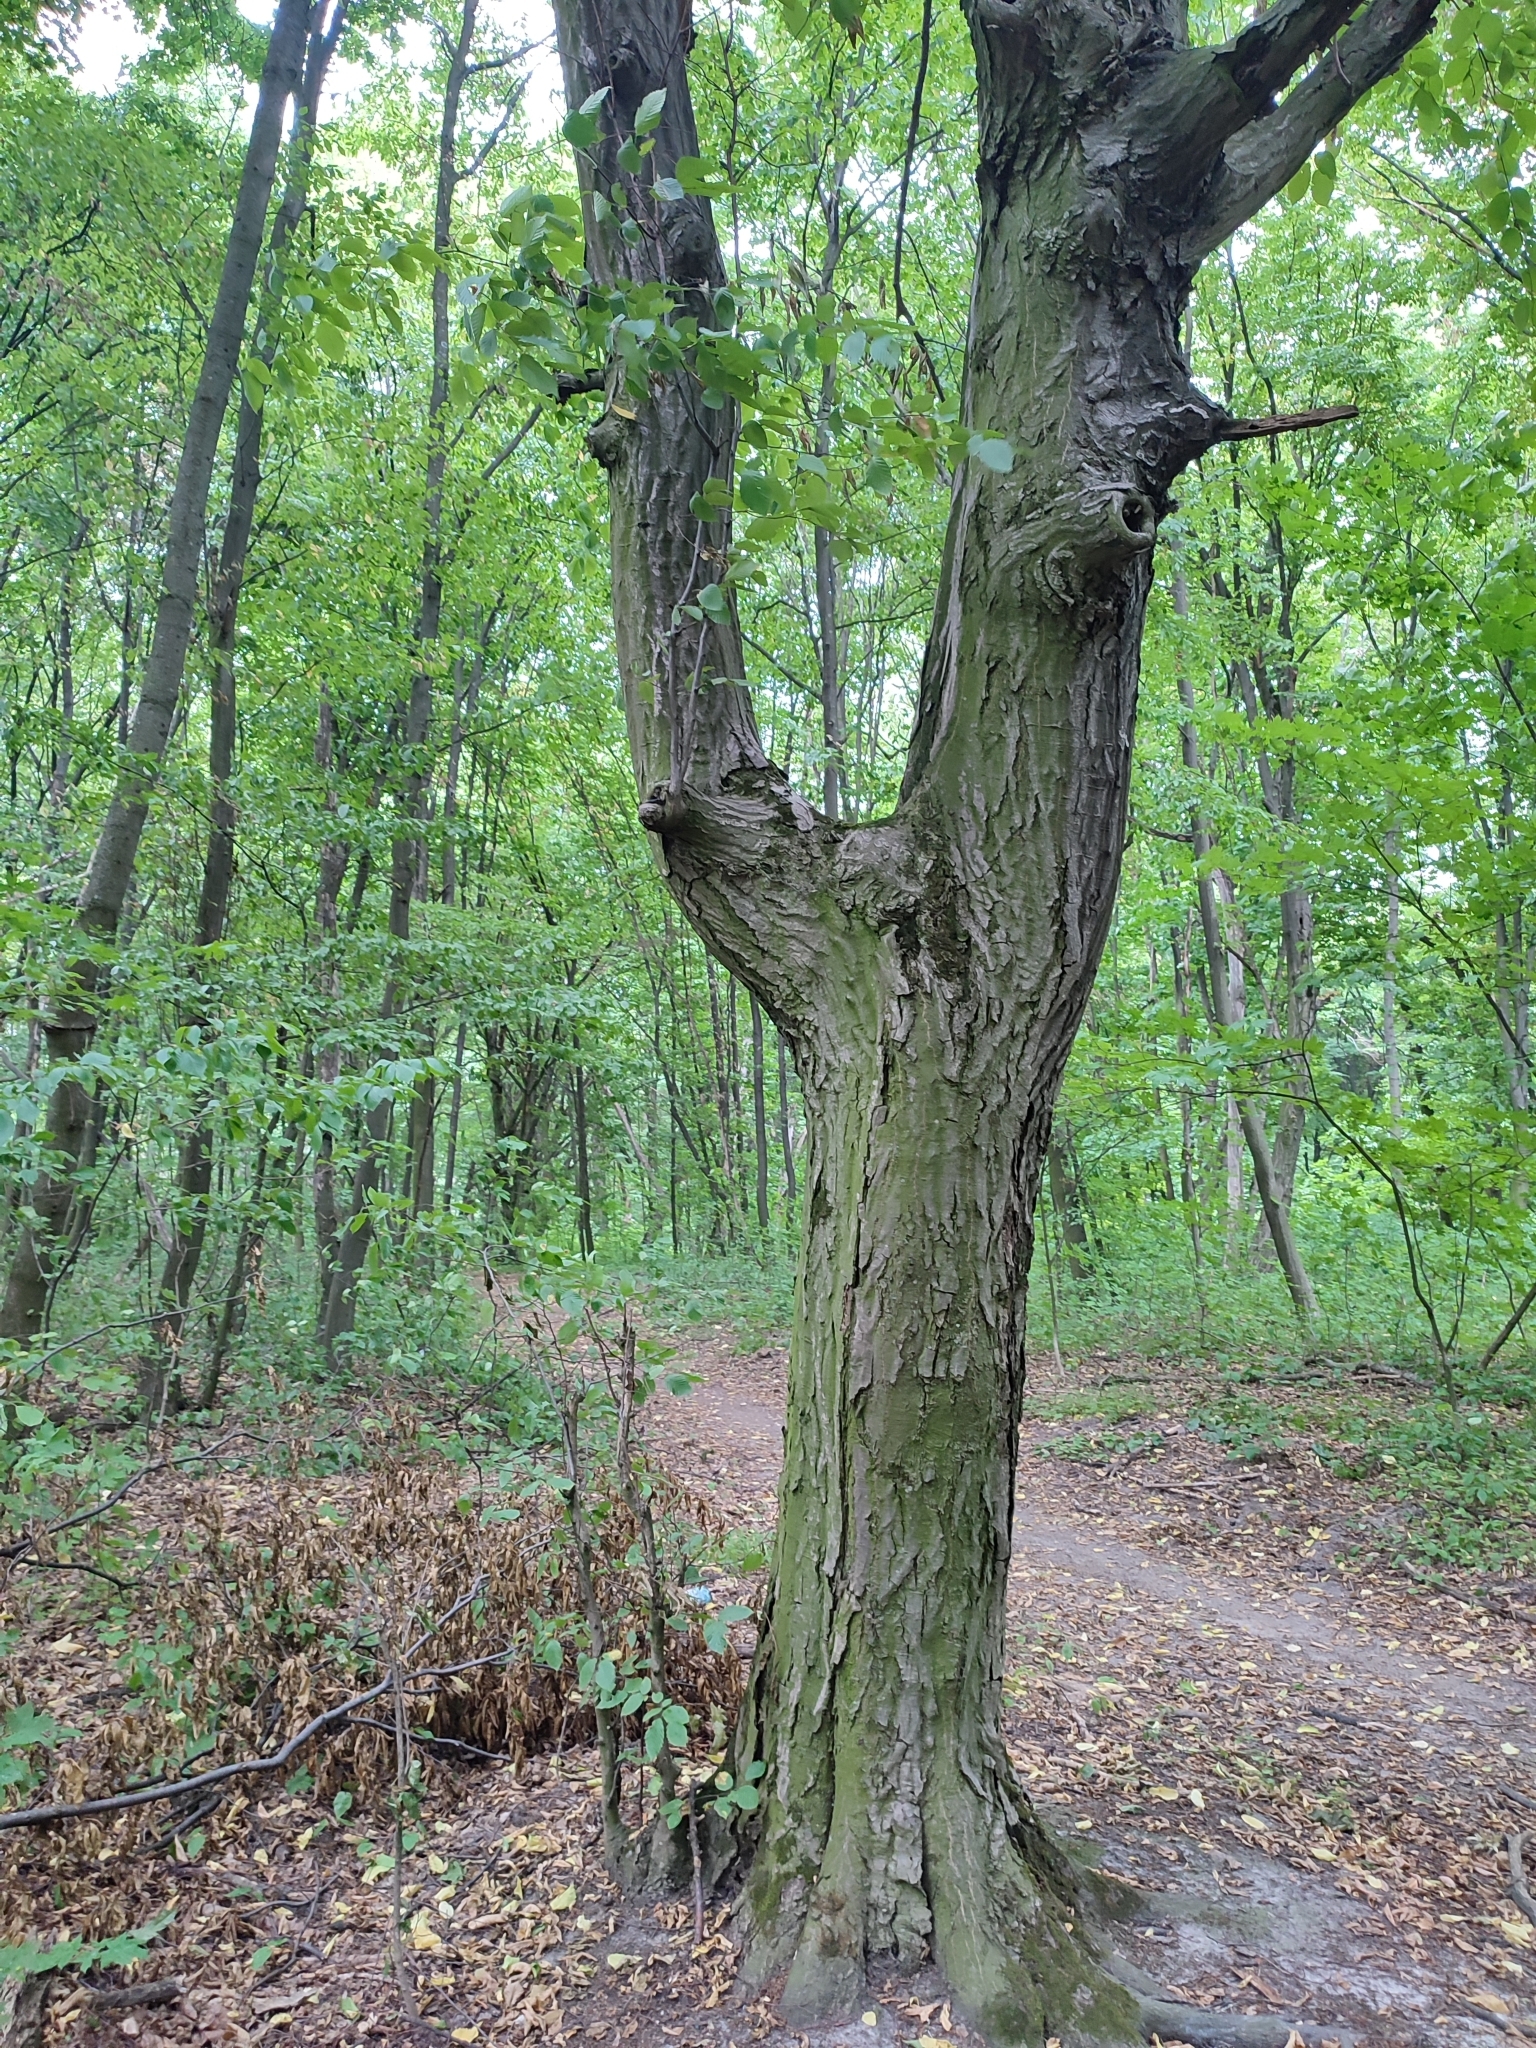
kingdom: Plantae
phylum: Tracheophyta
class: Magnoliopsida
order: Fagales
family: Betulaceae
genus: Carpinus
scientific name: Carpinus betulus
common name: Hornbeam
